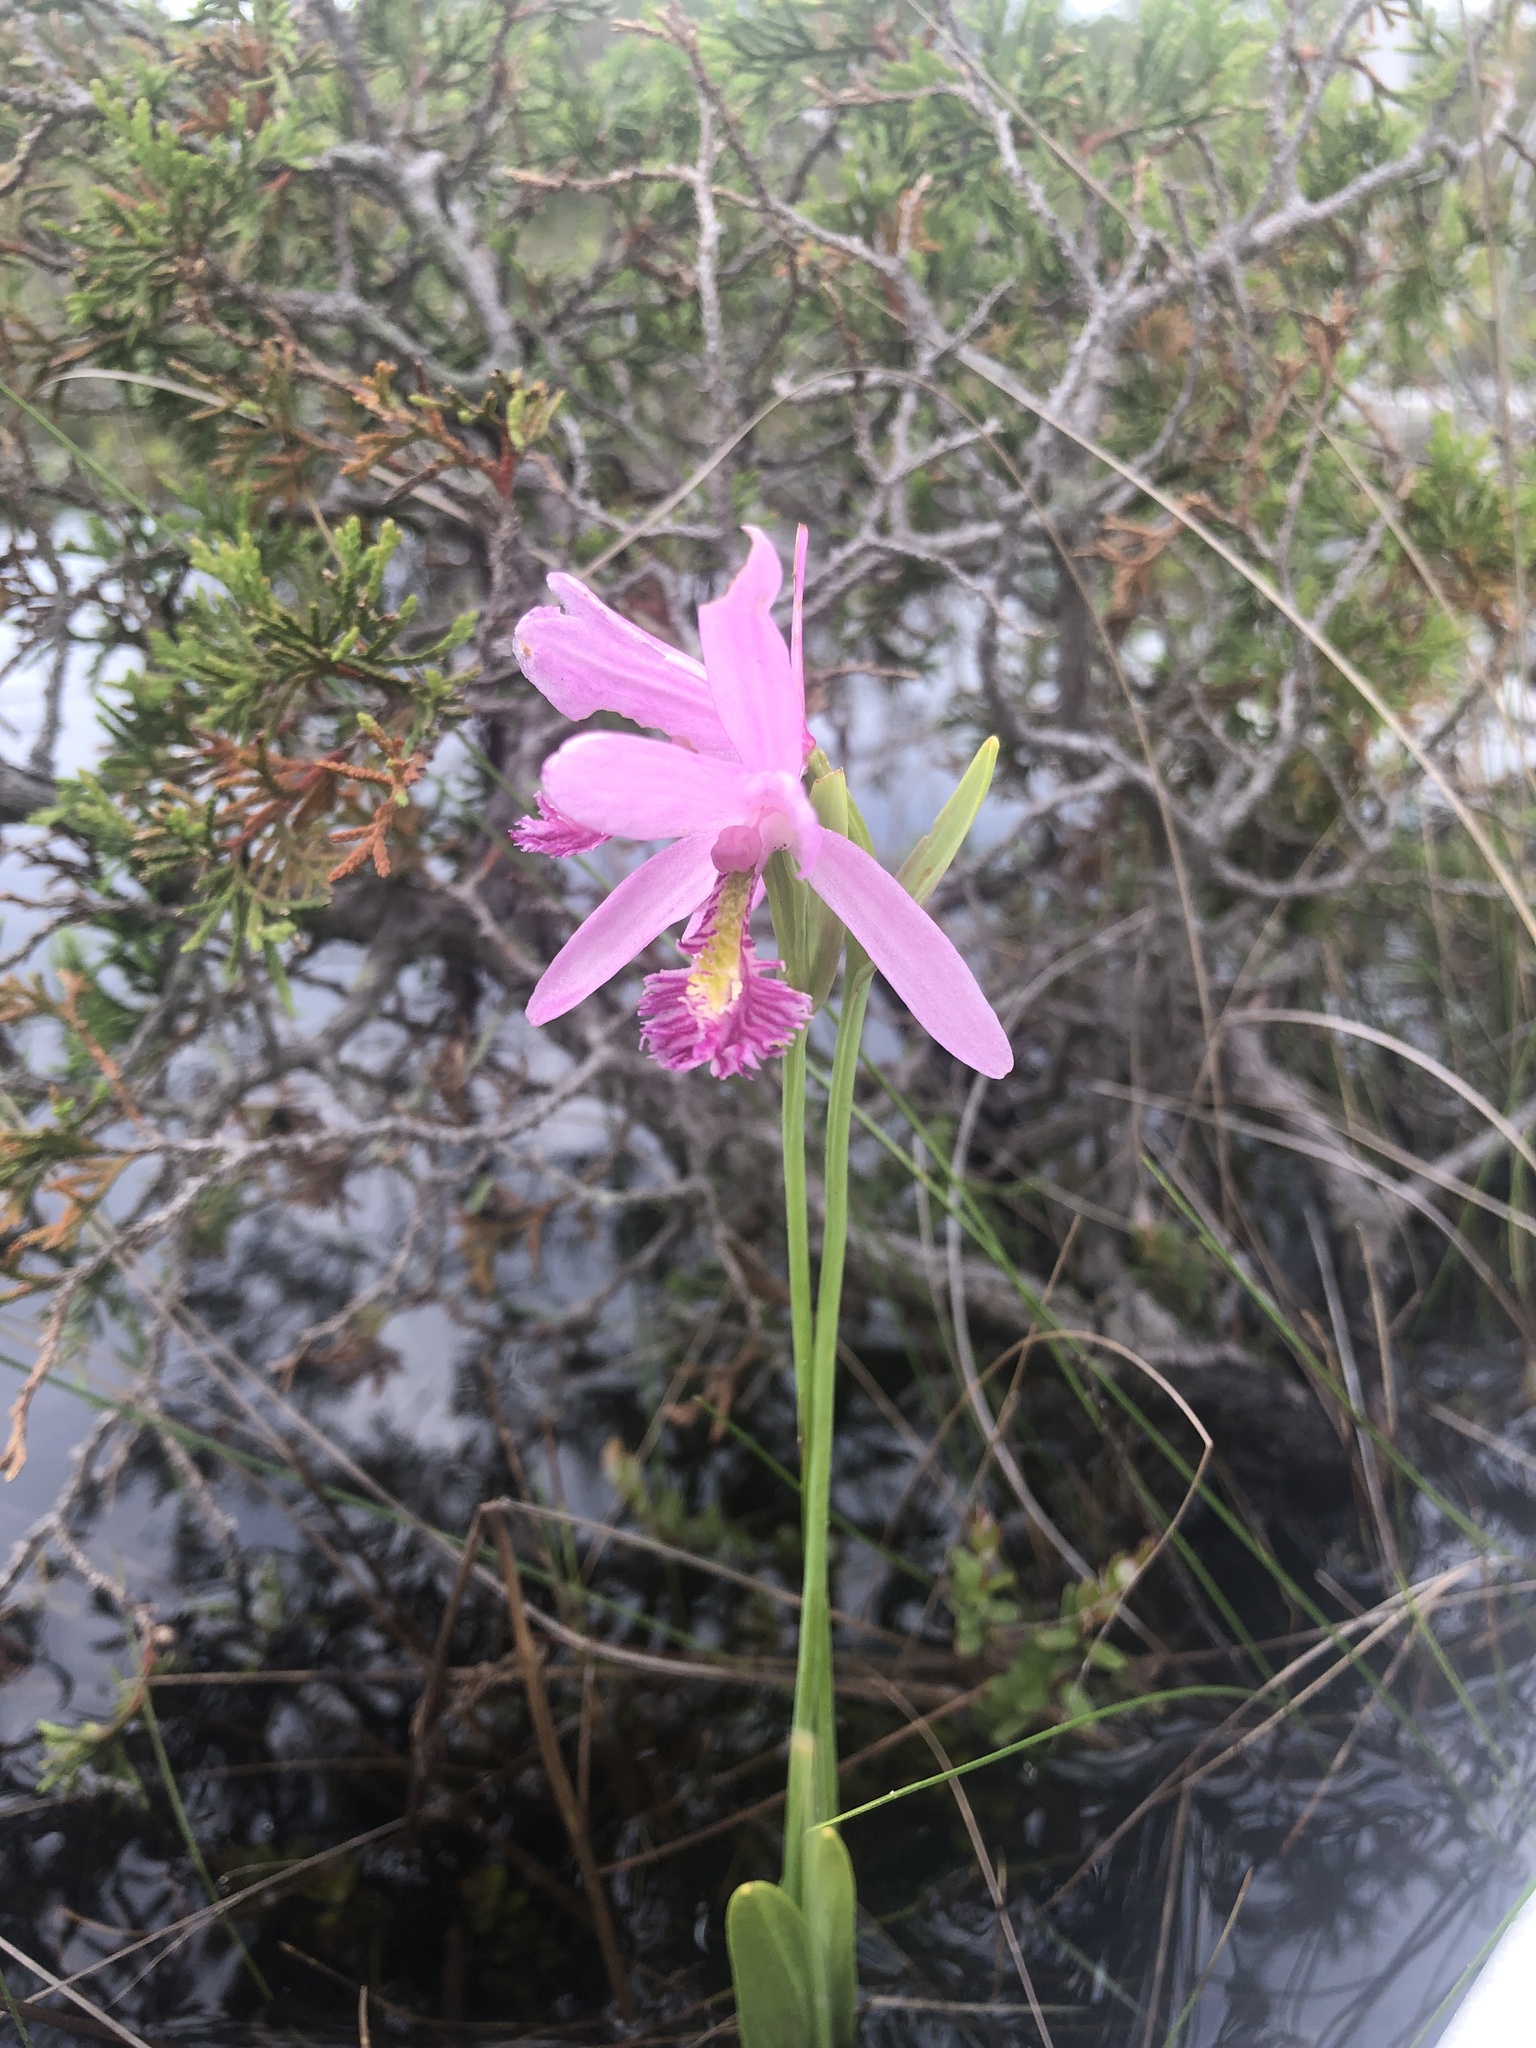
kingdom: Plantae
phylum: Tracheophyta
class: Liliopsida
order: Asparagales
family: Orchidaceae
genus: Pogonia
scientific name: Pogonia ophioglossoides
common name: Rose pogonia
